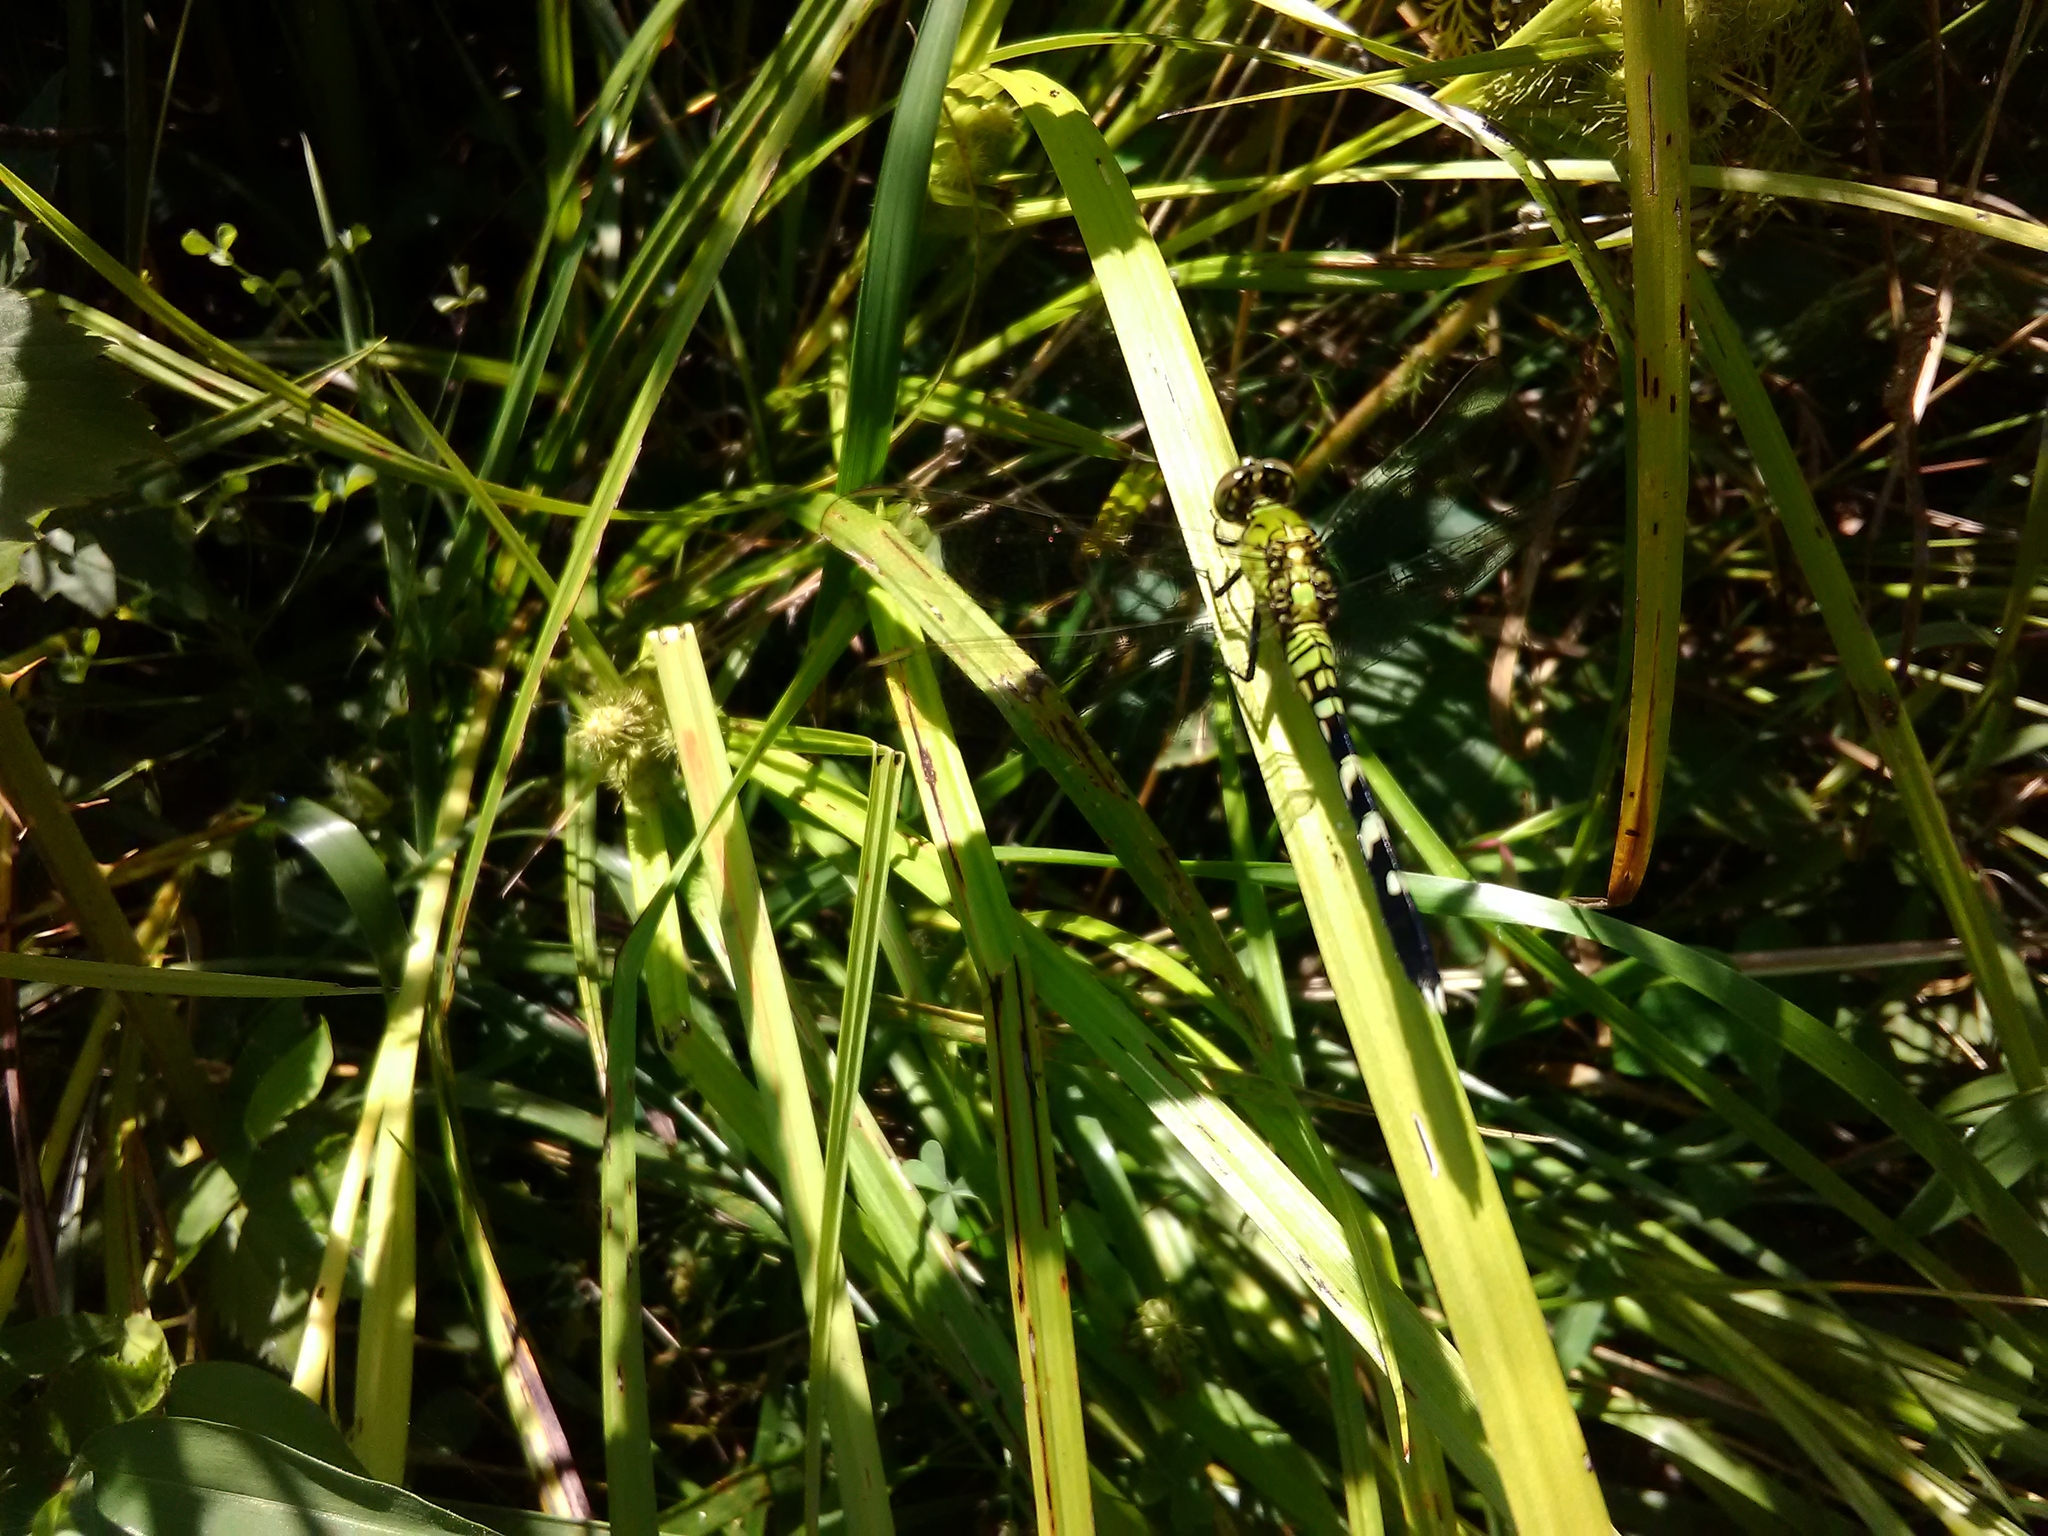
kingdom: Animalia
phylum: Arthropoda
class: Insecta
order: Odonata
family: Libellulidae
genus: Erythemis
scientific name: Erythemis simplicicollis
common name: Eastern pondhawk
